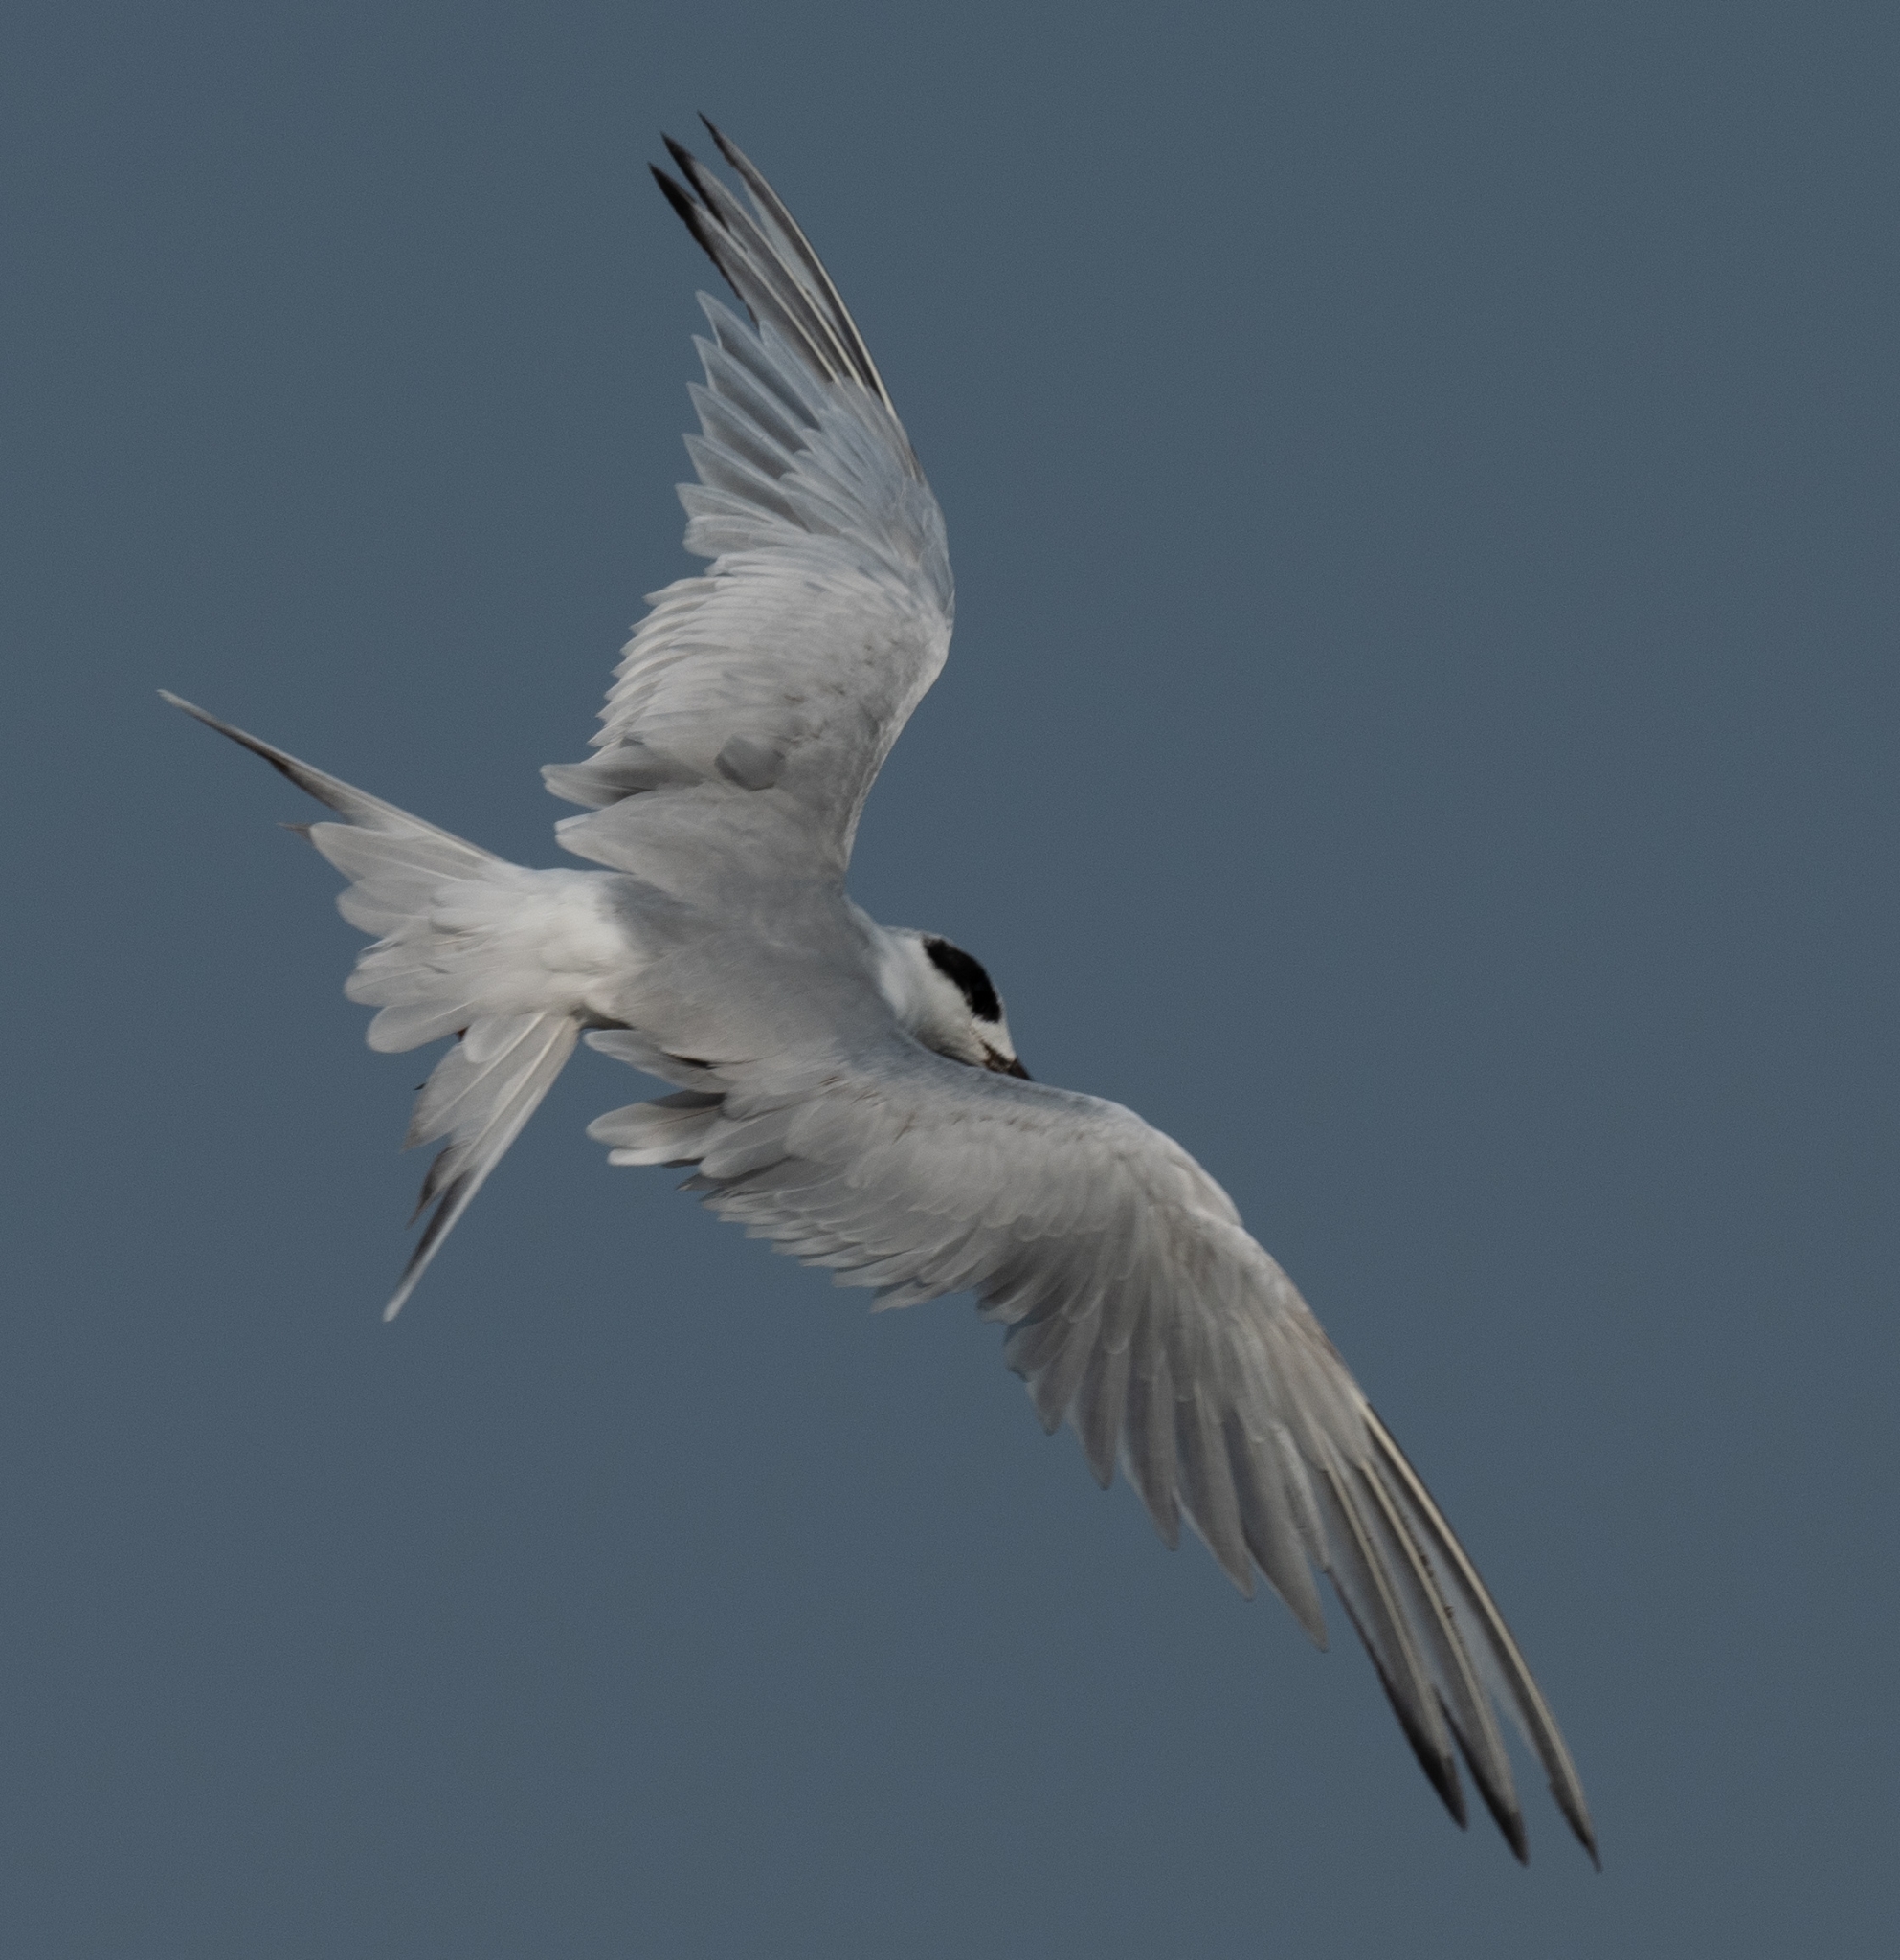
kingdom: Animalia
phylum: Chordata
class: Aves
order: Charadriiformes
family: Laridae
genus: Sterna
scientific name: Sterna forsteri
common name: Forster's tern
